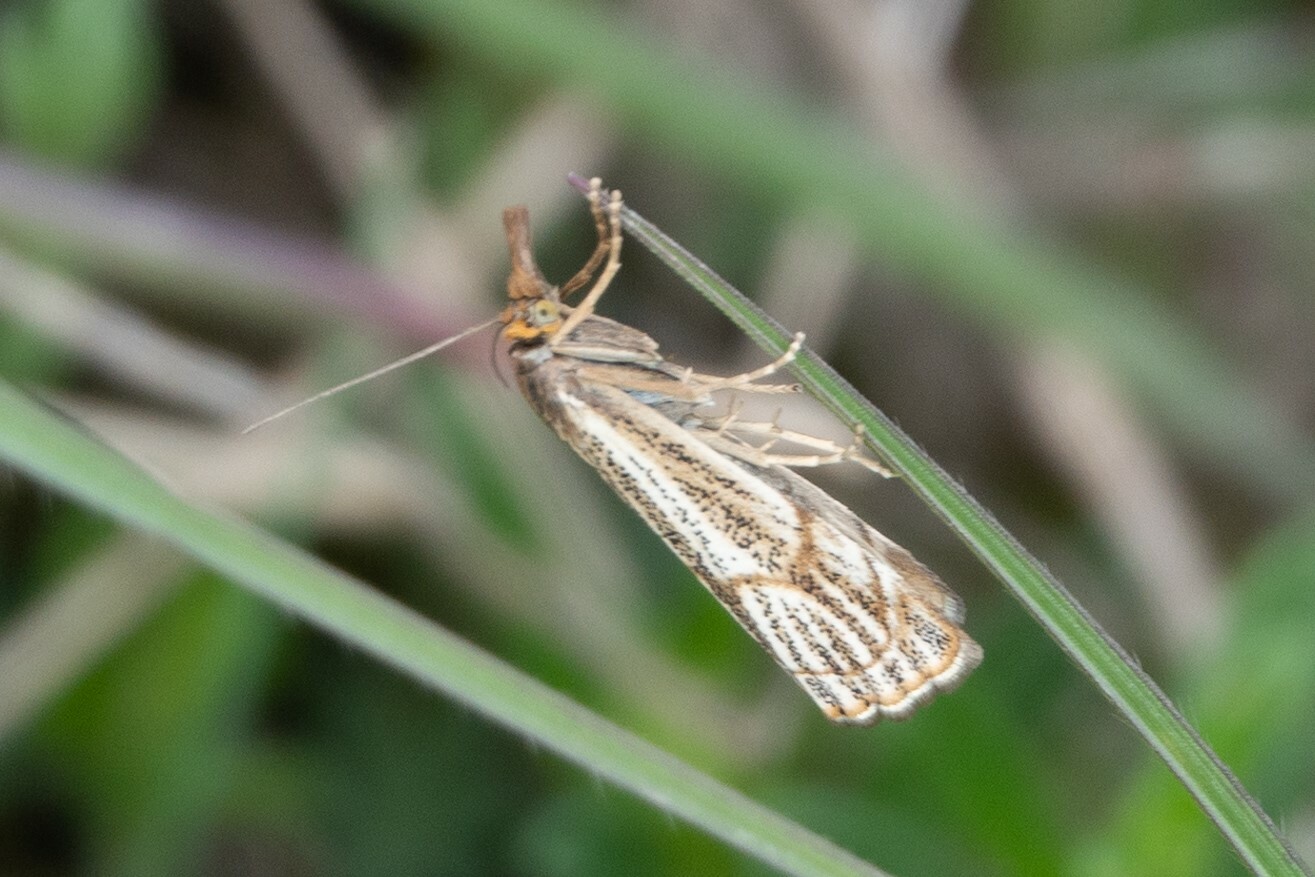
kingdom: Animalia
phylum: Arthropoda
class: Insecta
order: Lepidoptera
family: Crambidae
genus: Thisanotia
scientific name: Thisanotia chrysonuchella
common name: Powdered grass-veneer
